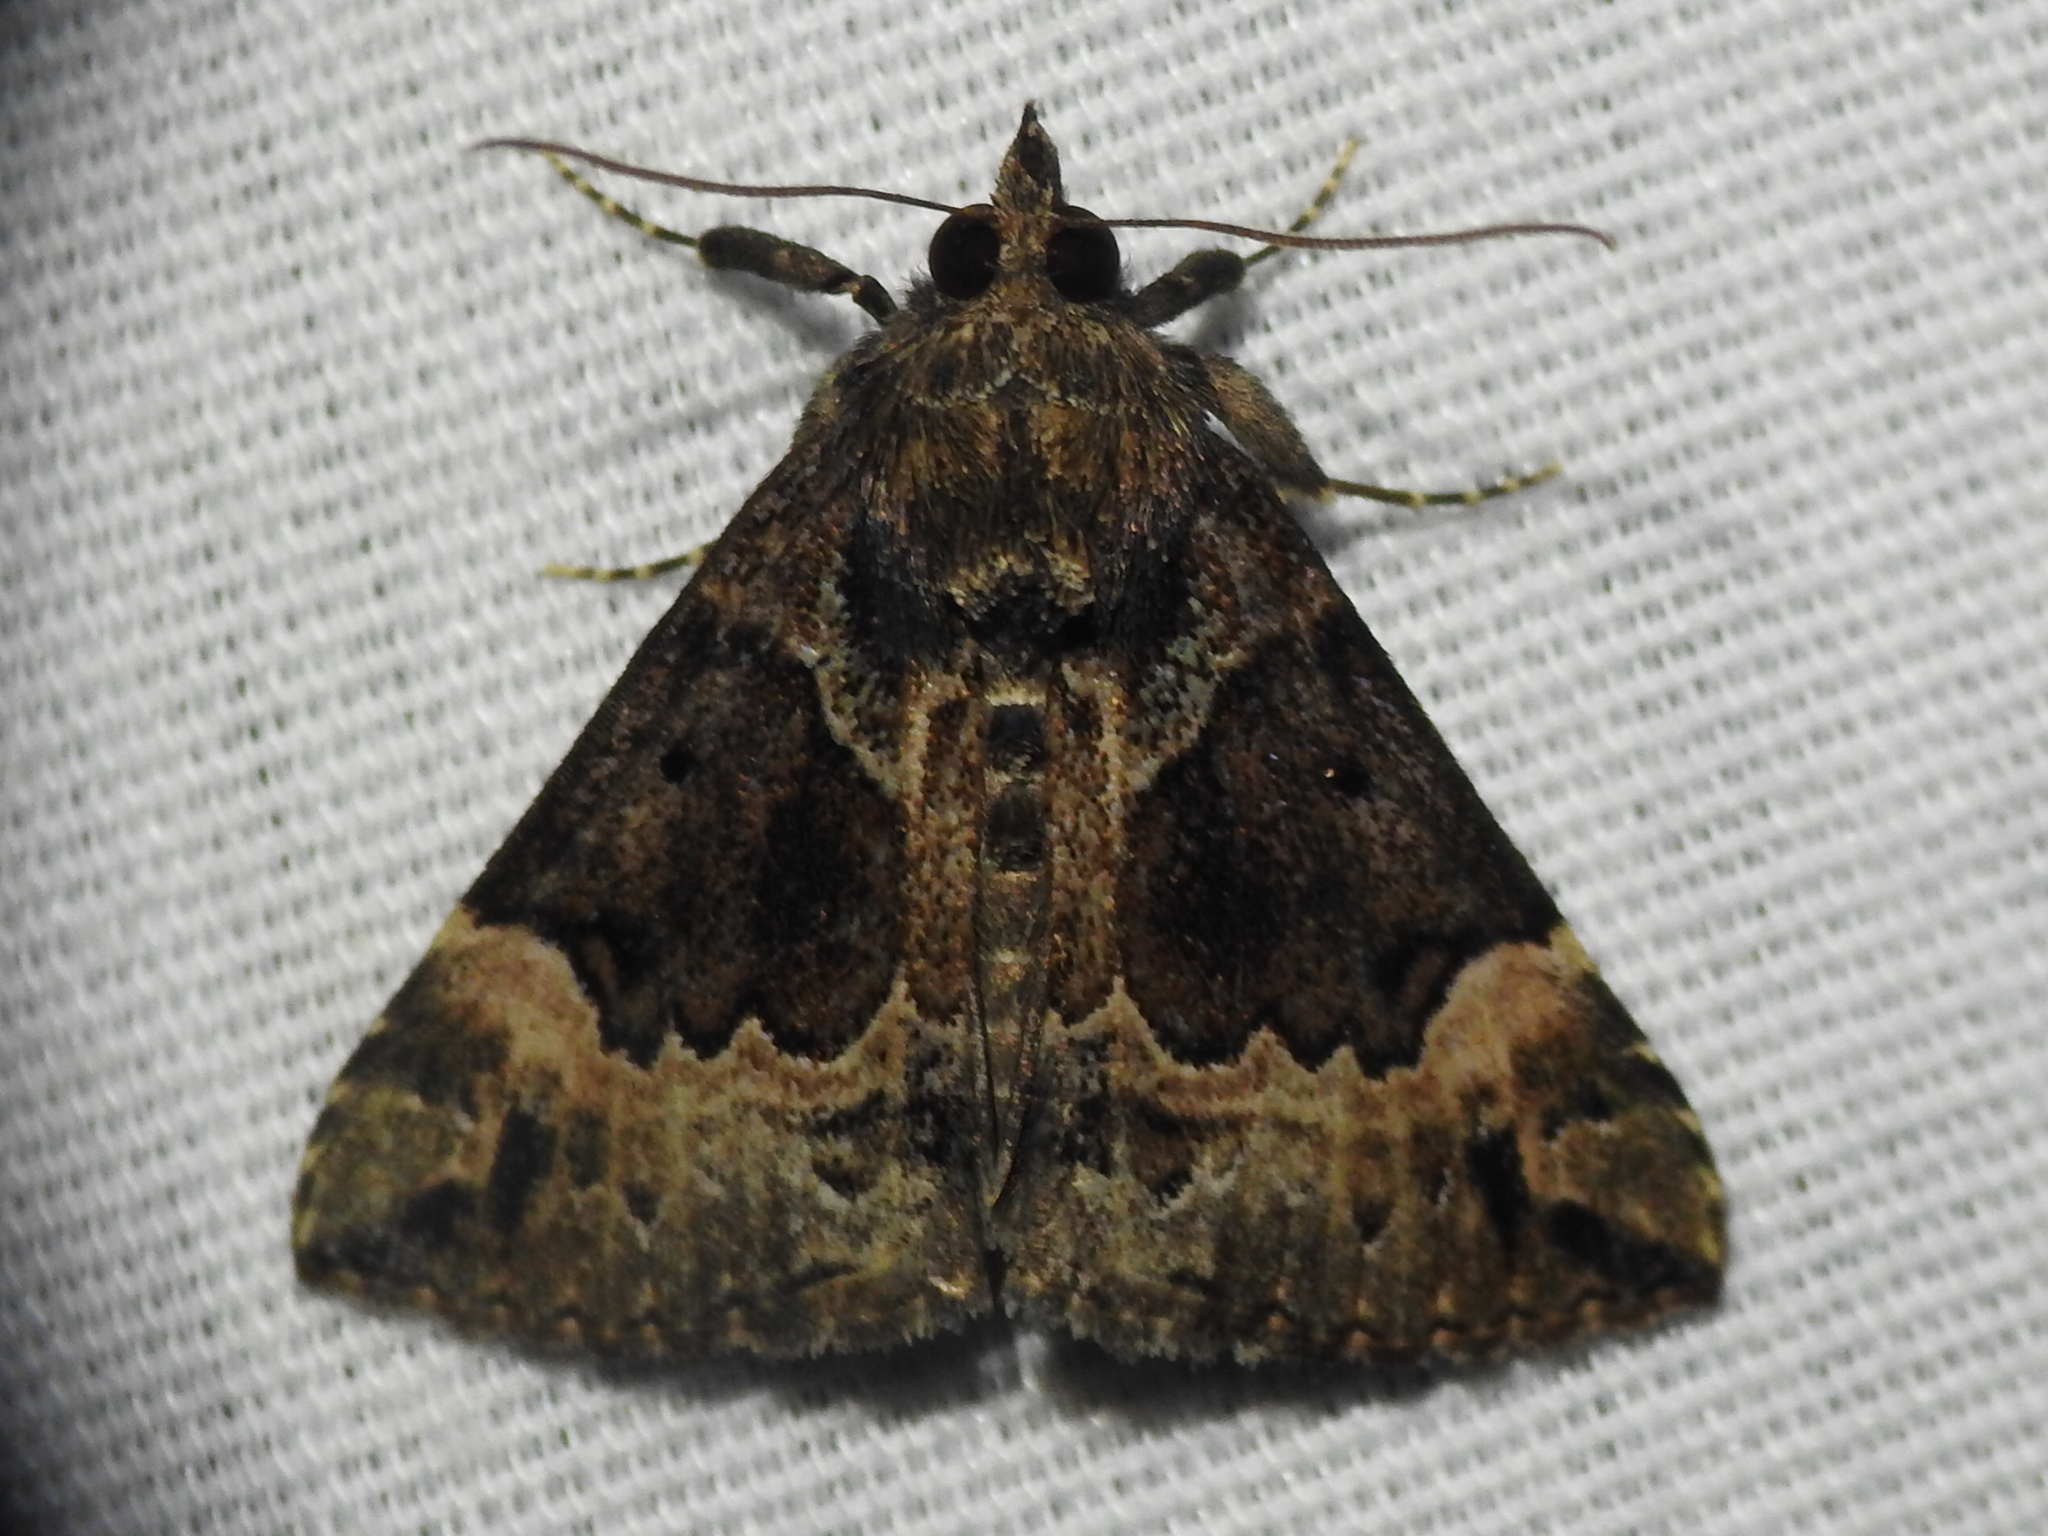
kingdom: Animalia
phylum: Arthropoda
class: Insecta
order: Lepidoptera
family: Erebidae
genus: Hypena
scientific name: Hypena palparia
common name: Mottled bomolocha moth
